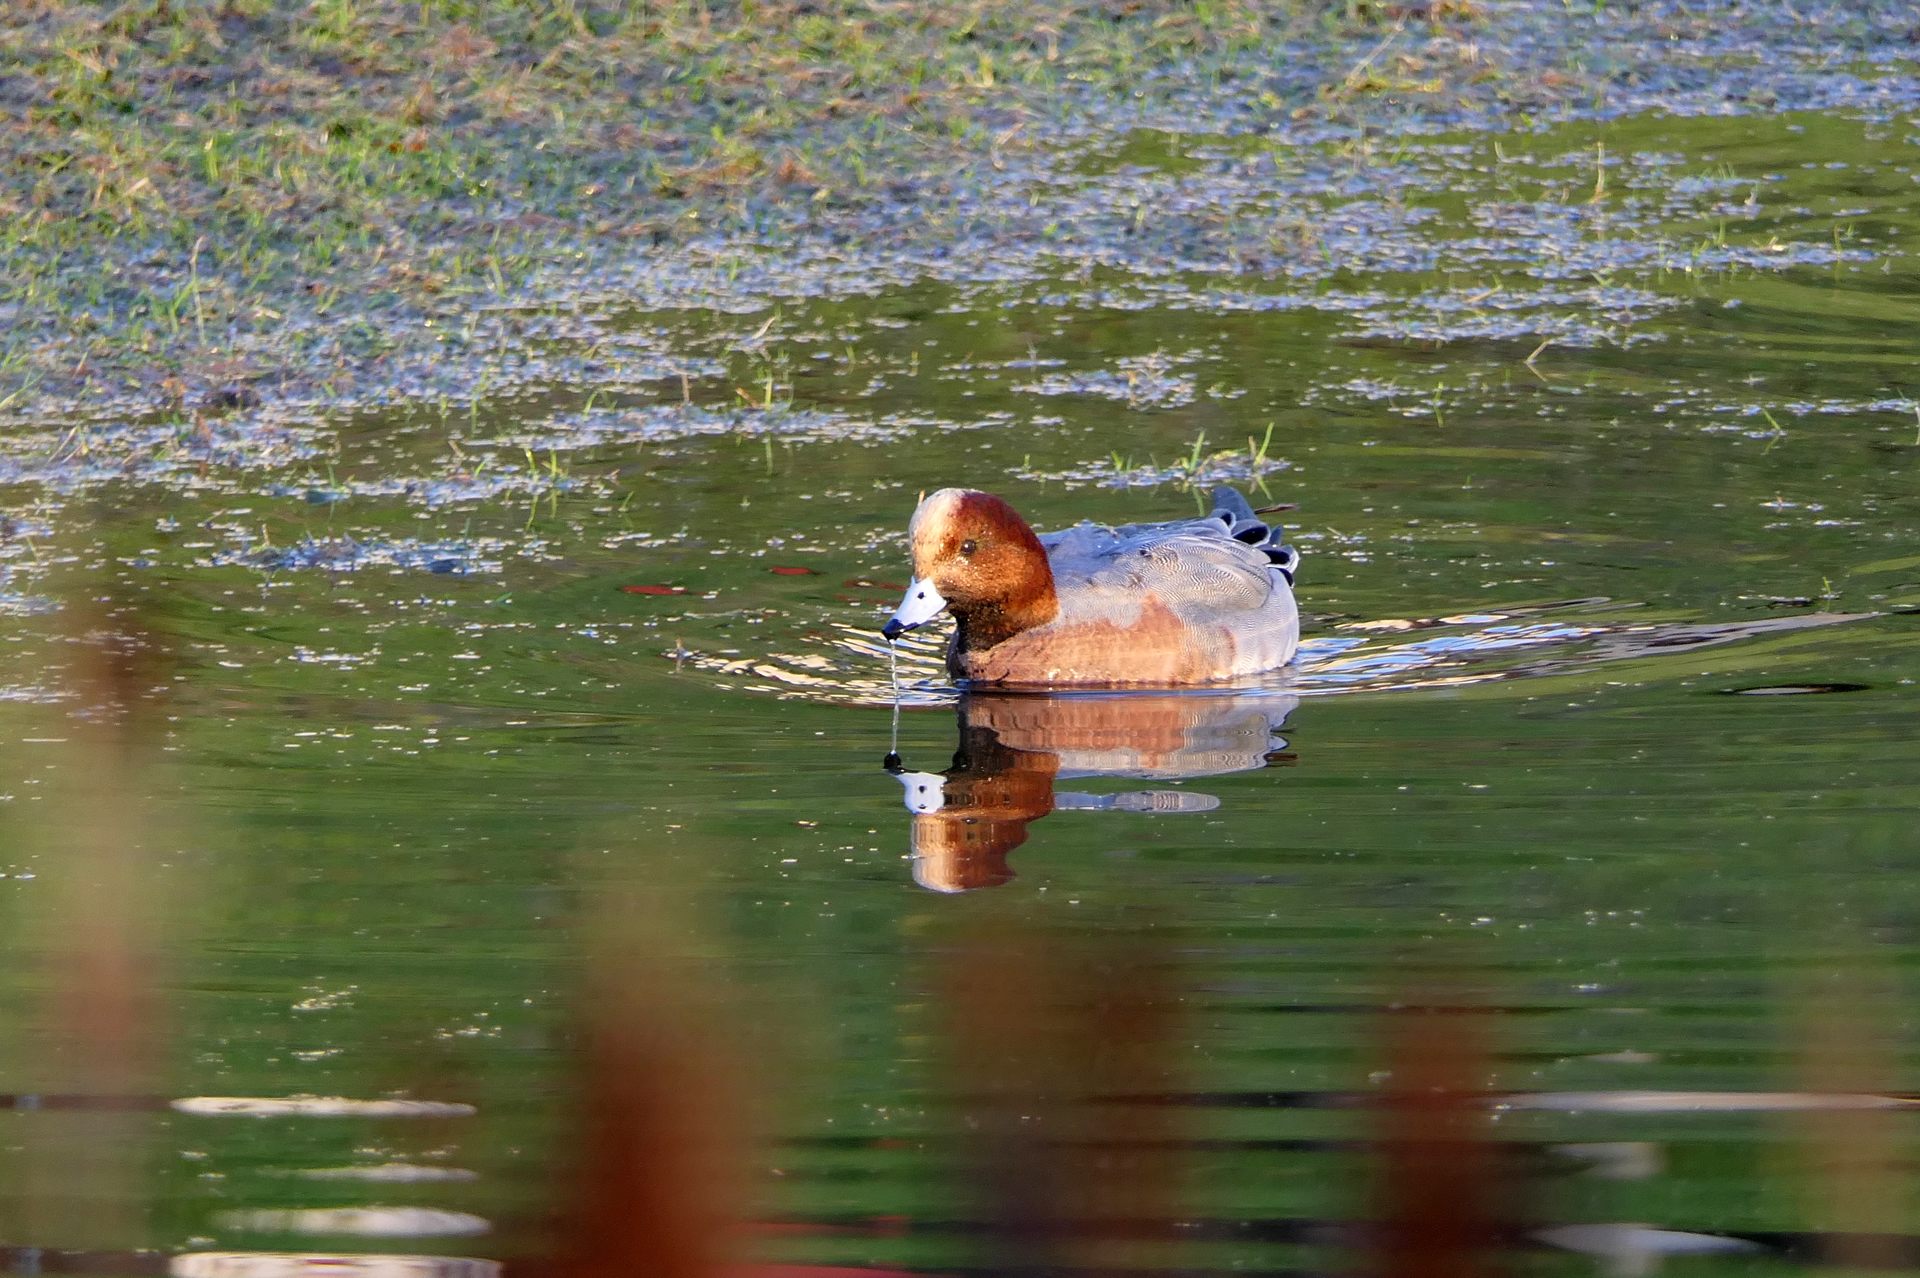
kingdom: Animalia
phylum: Chordata
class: Aves
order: Anseriformes
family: Anatidae
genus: Mareca
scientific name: Mareca penelope
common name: Eurasian wigeon
